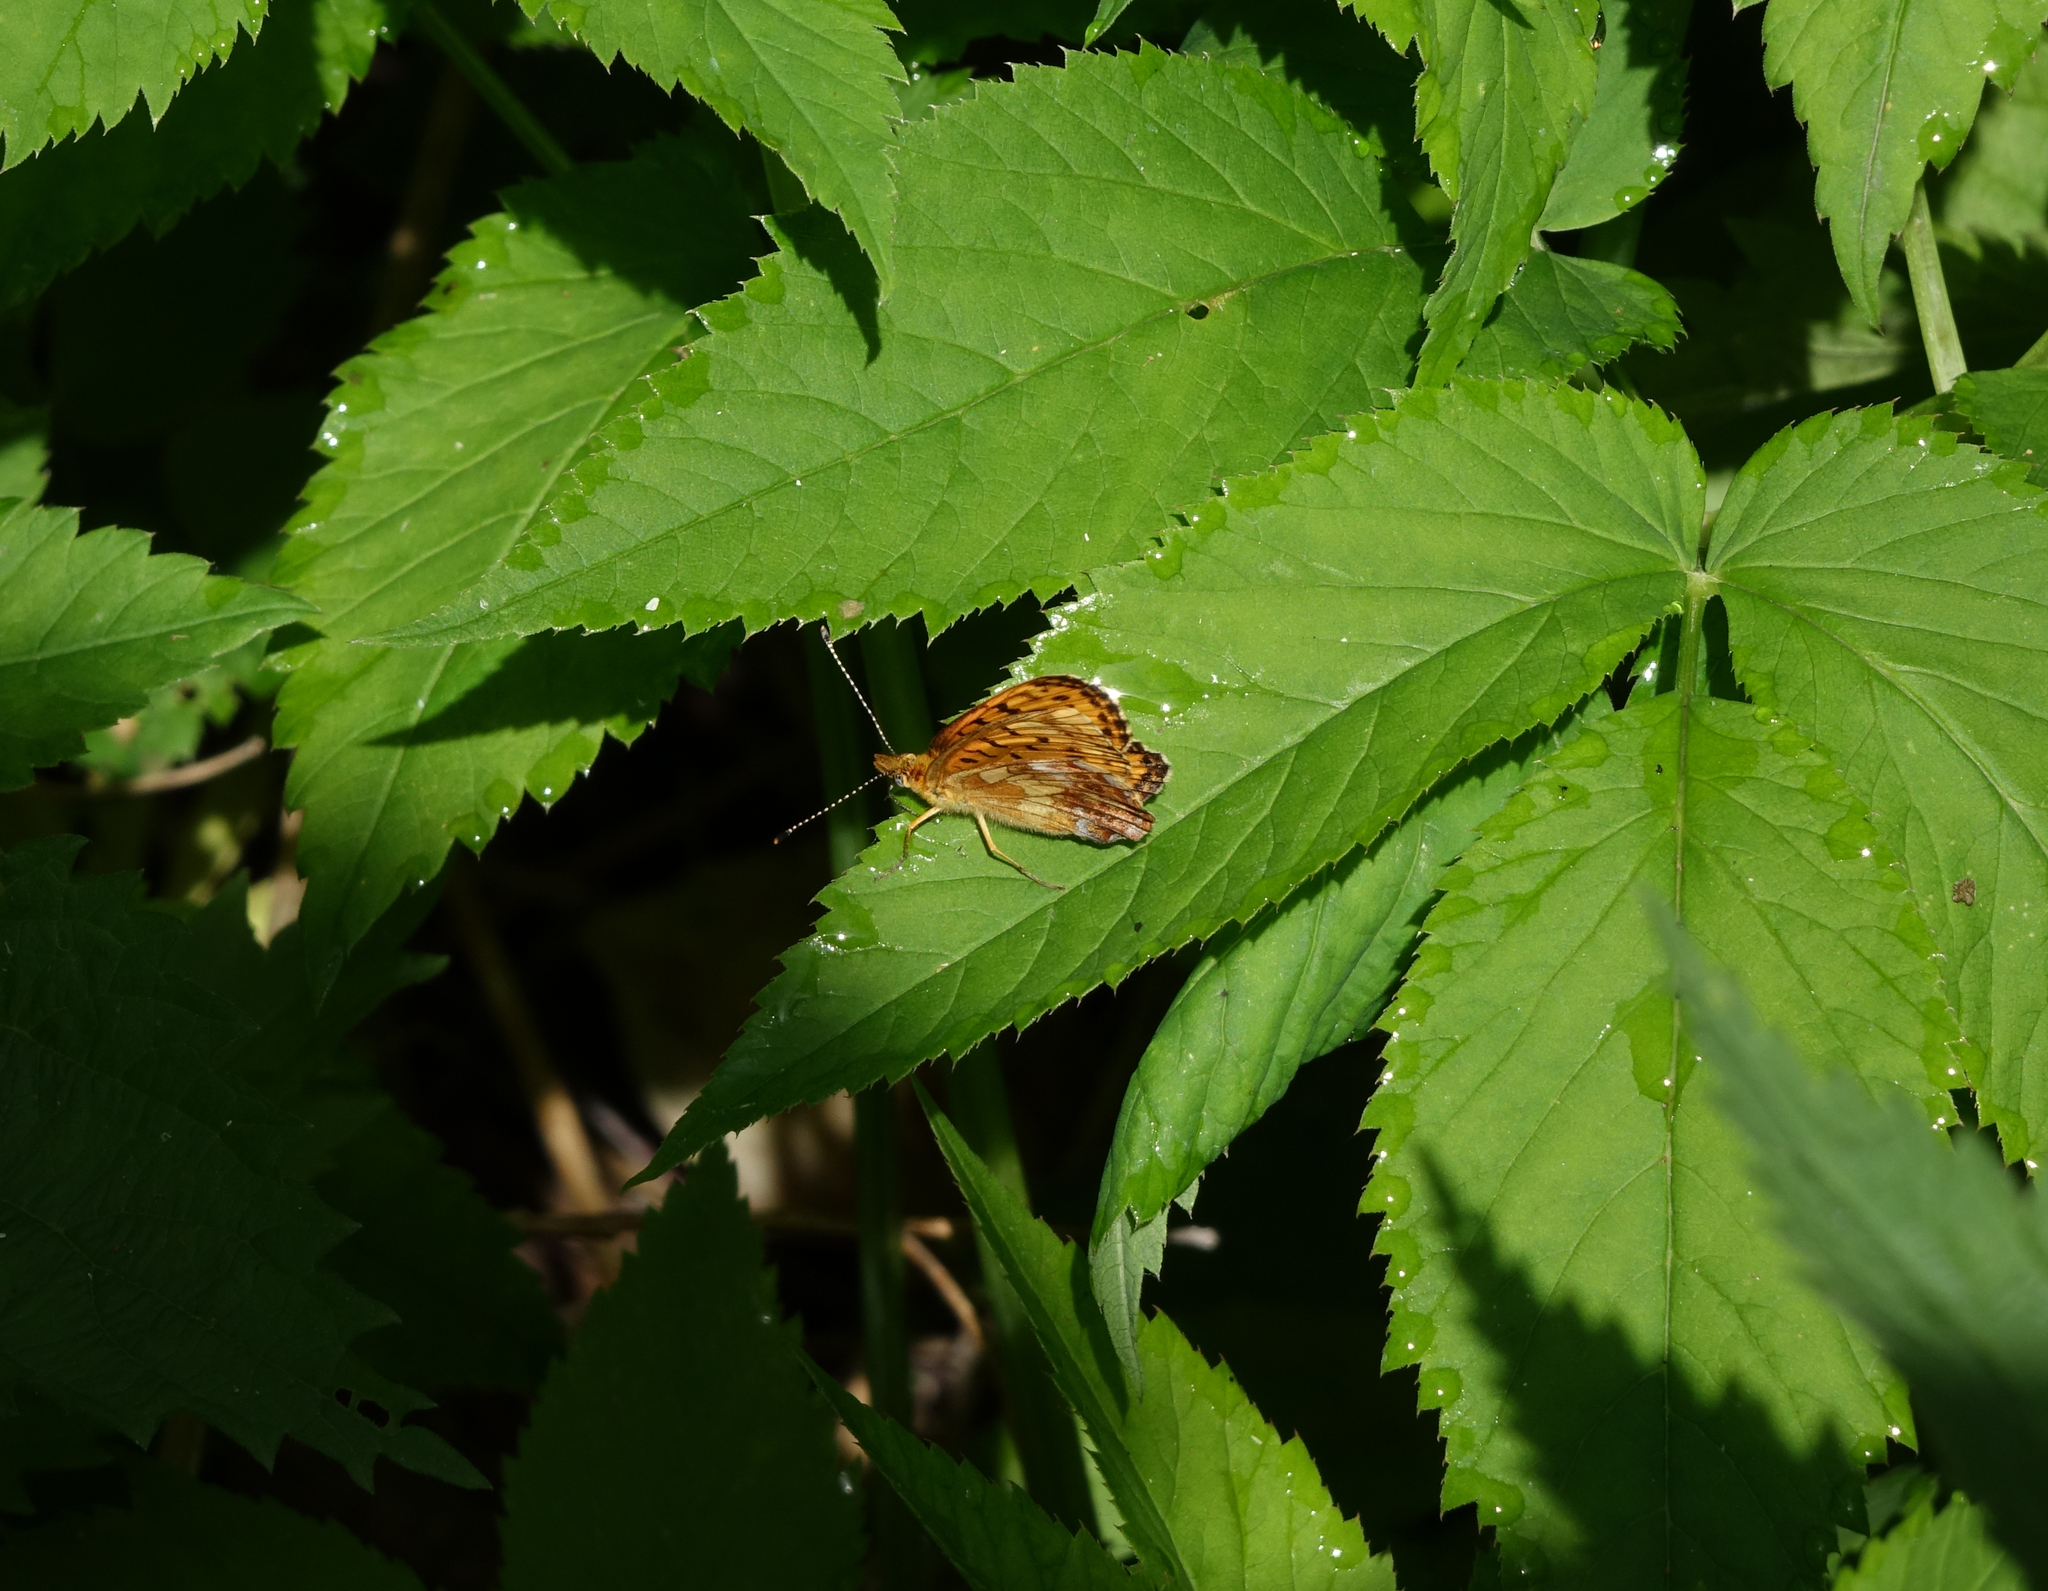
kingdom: Animalia
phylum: Arthropoda
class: Insecta
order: Lepidoptera
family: Nymphalidae
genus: Boloria
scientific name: Boloria thore
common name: Thor's fritillary
